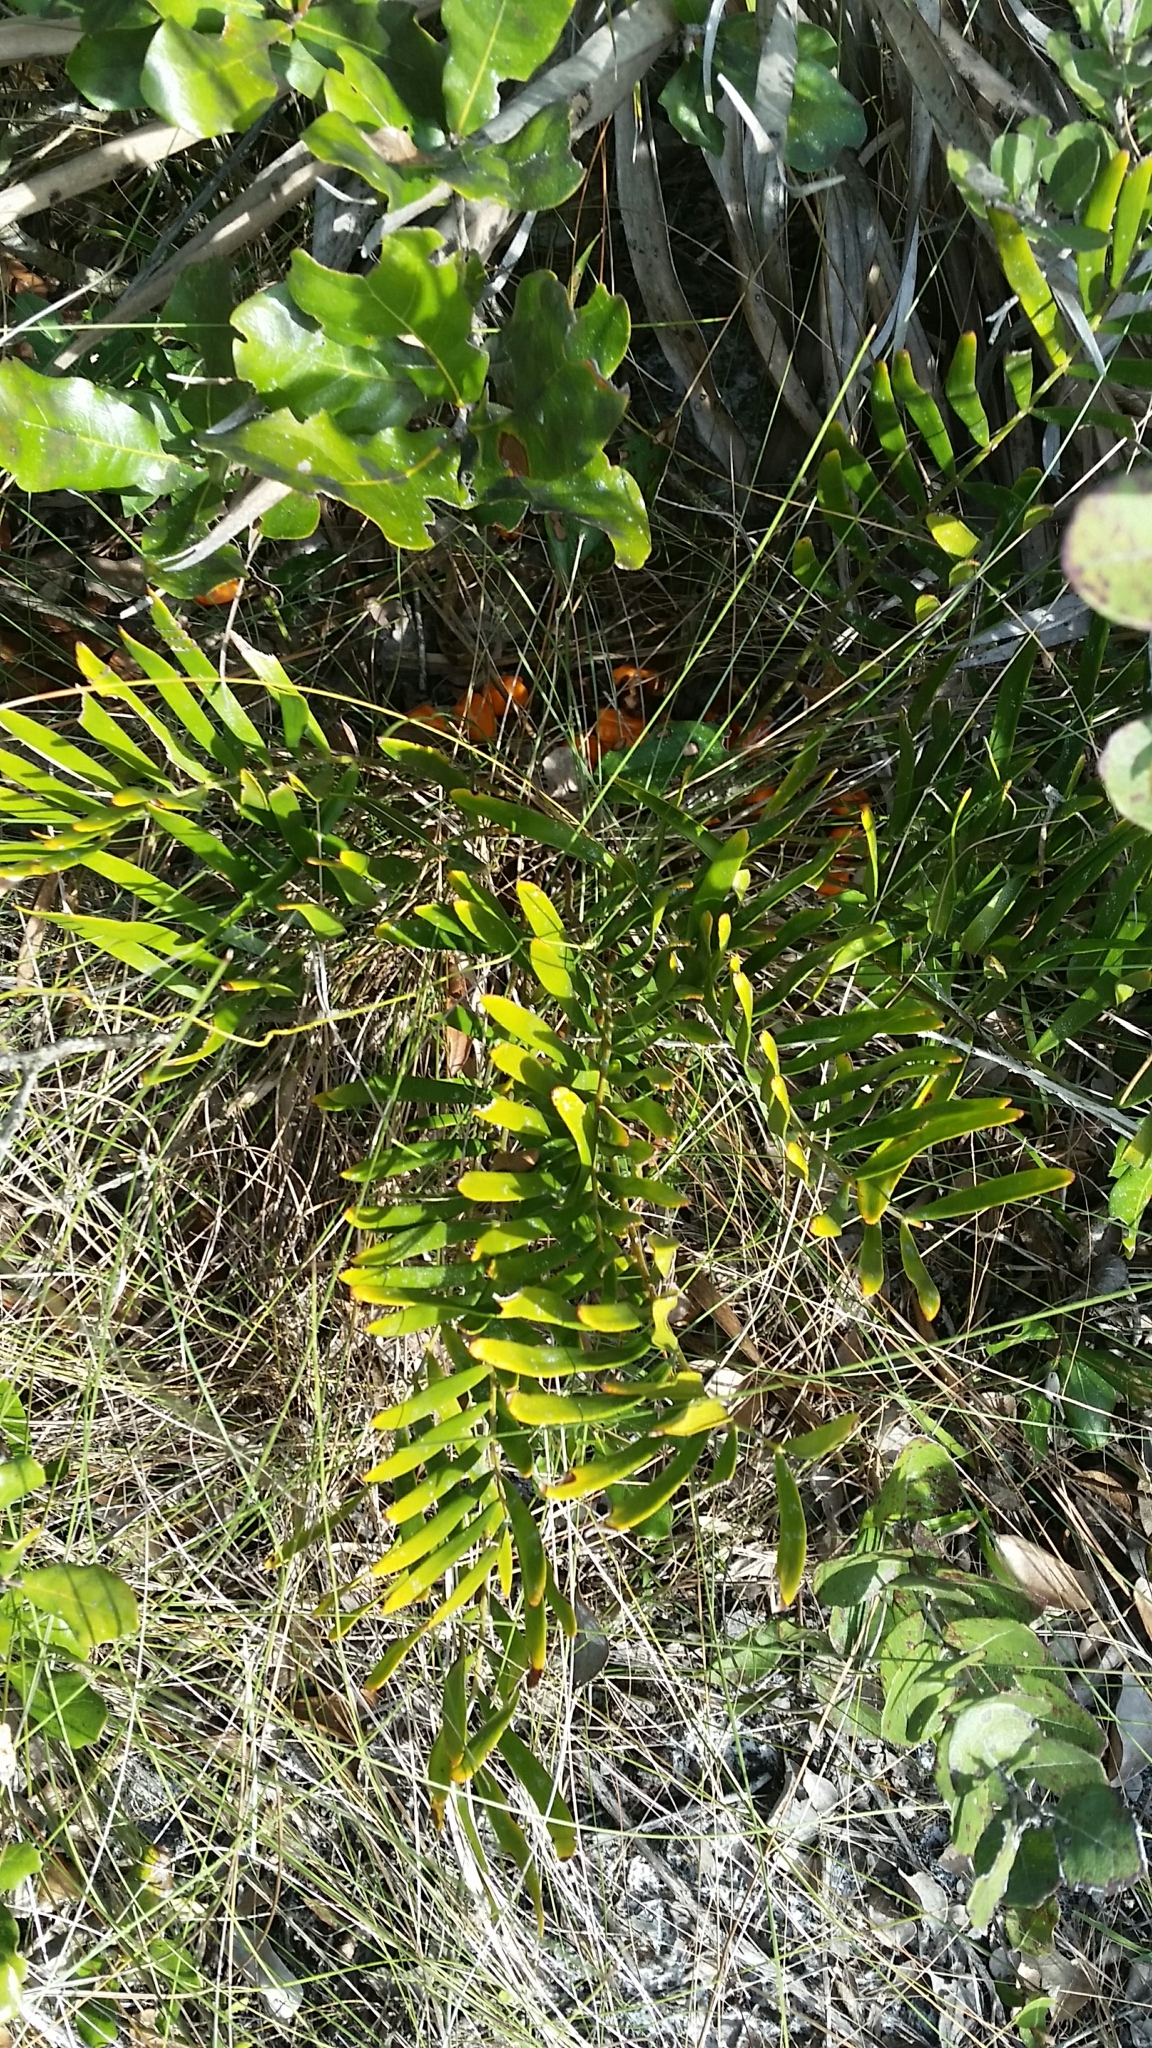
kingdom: Plantae
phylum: Tracheophyta
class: Cycadopsida
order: Cycadales
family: Zamiaceae
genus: Zamia
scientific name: Zamia integrifolia
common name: Florida arrowroot
